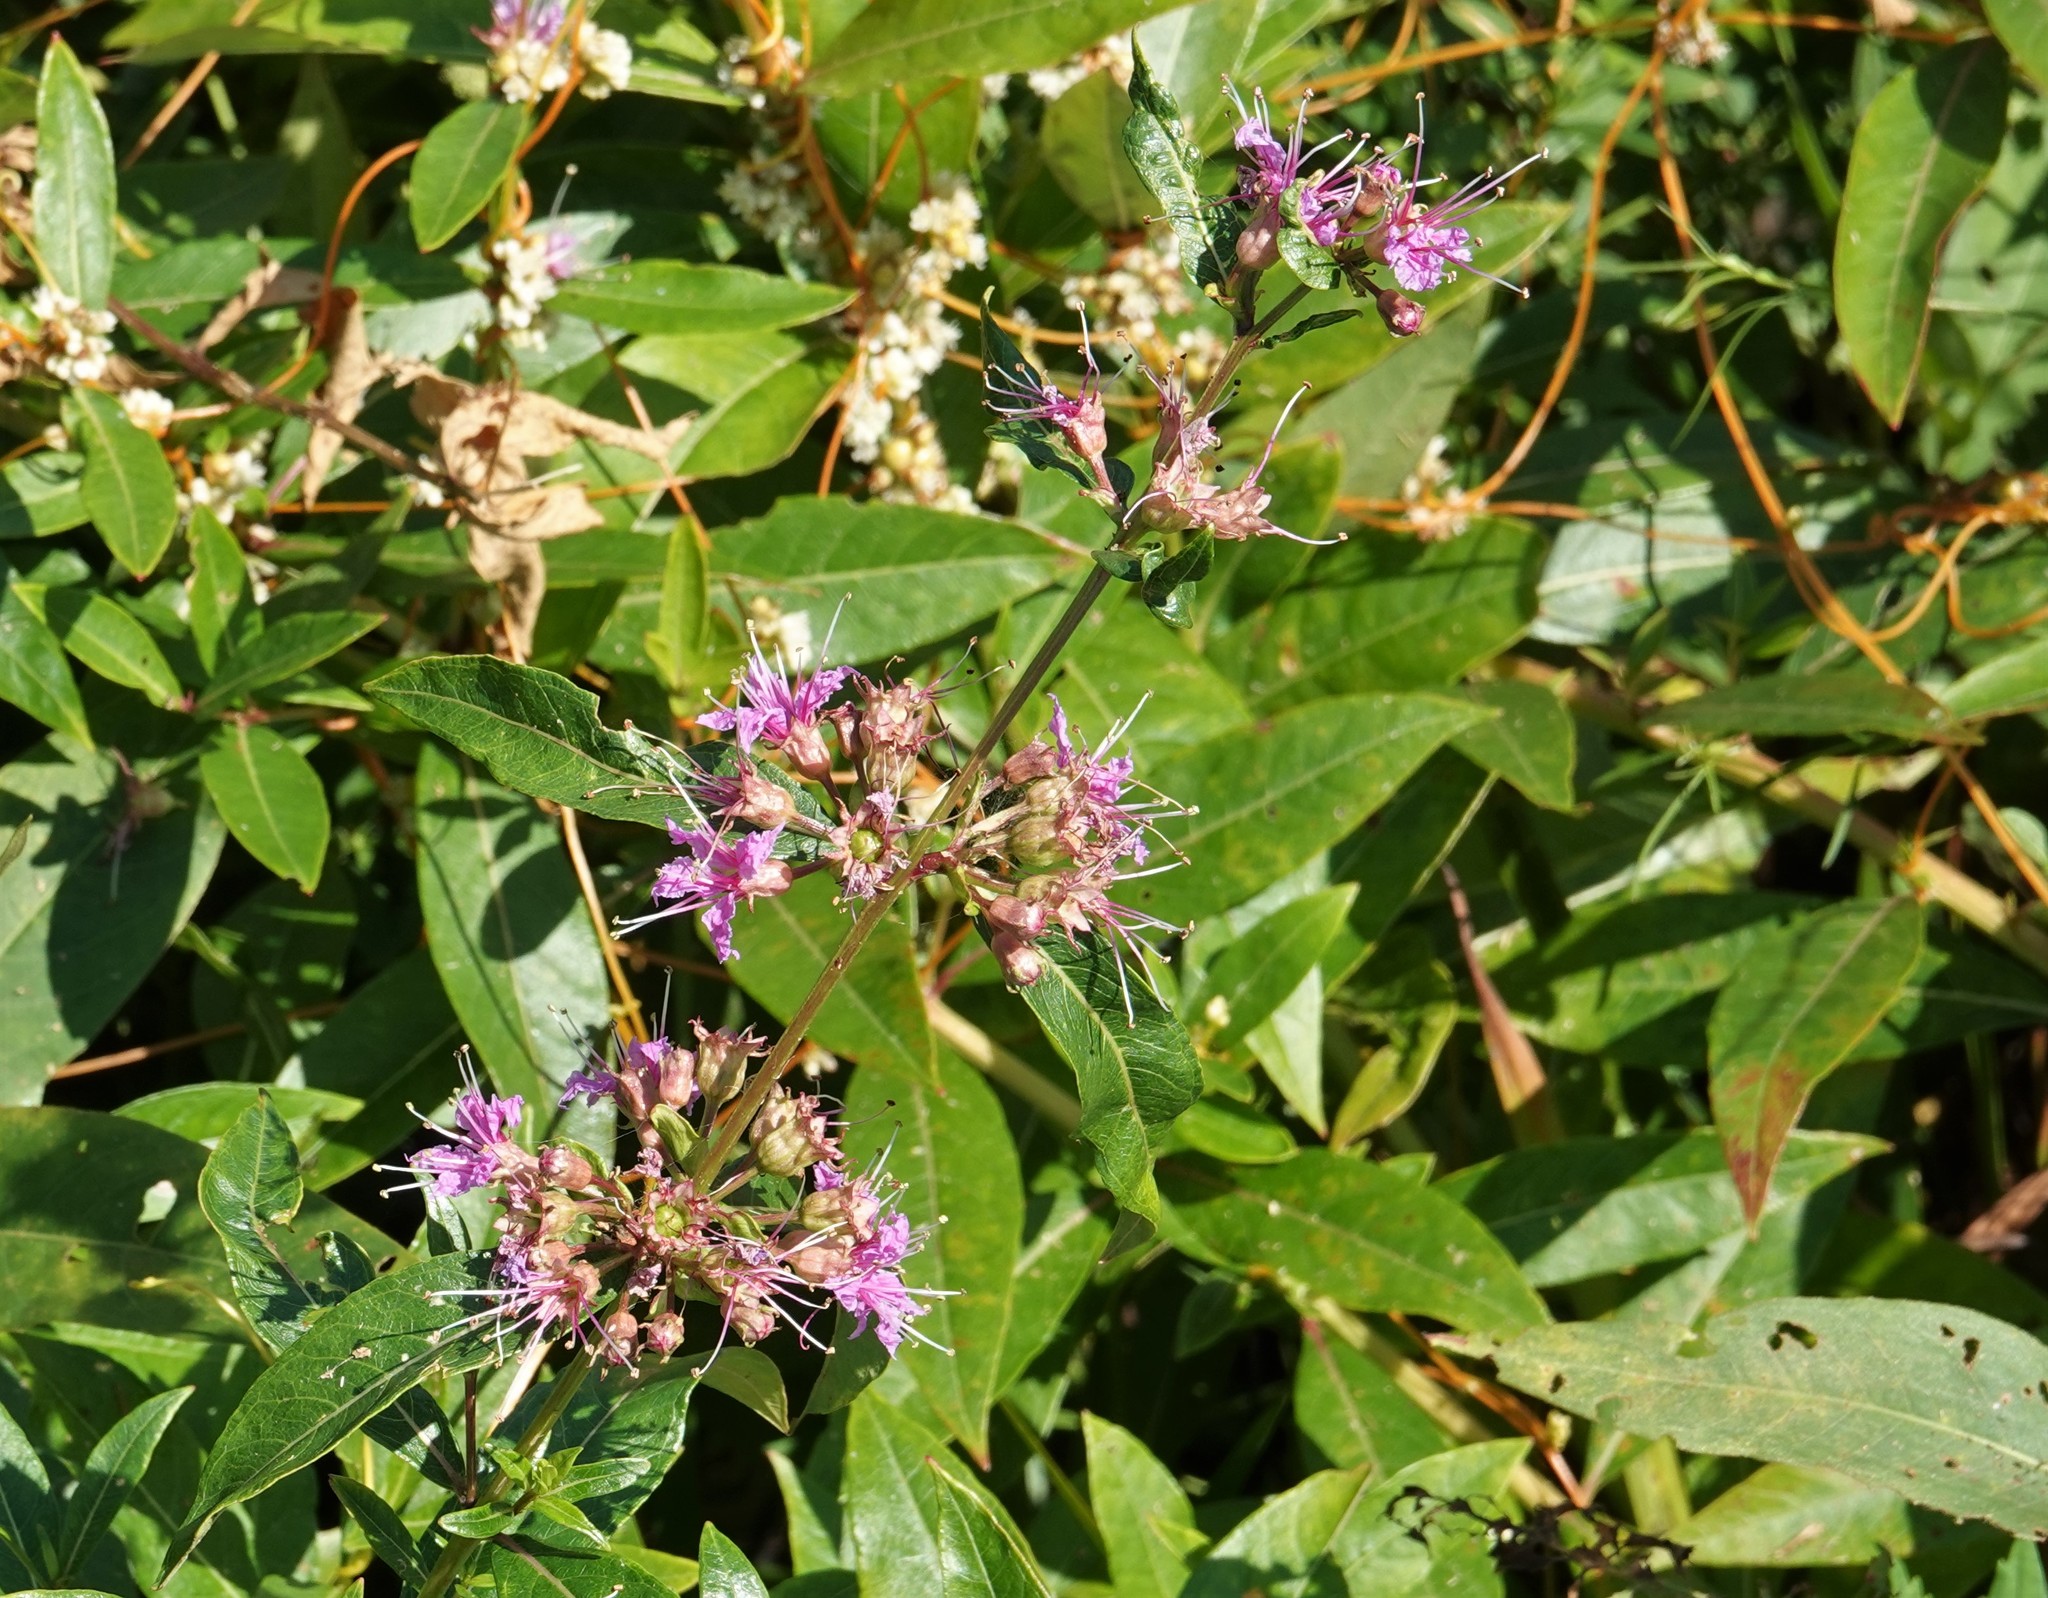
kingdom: Plantae
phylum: Tracheophyta
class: Magnoliopsida
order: Myrtales
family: Lythraceae
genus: Decodon
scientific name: Decodon verticillatus
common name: Hairy swamp loosestrife
